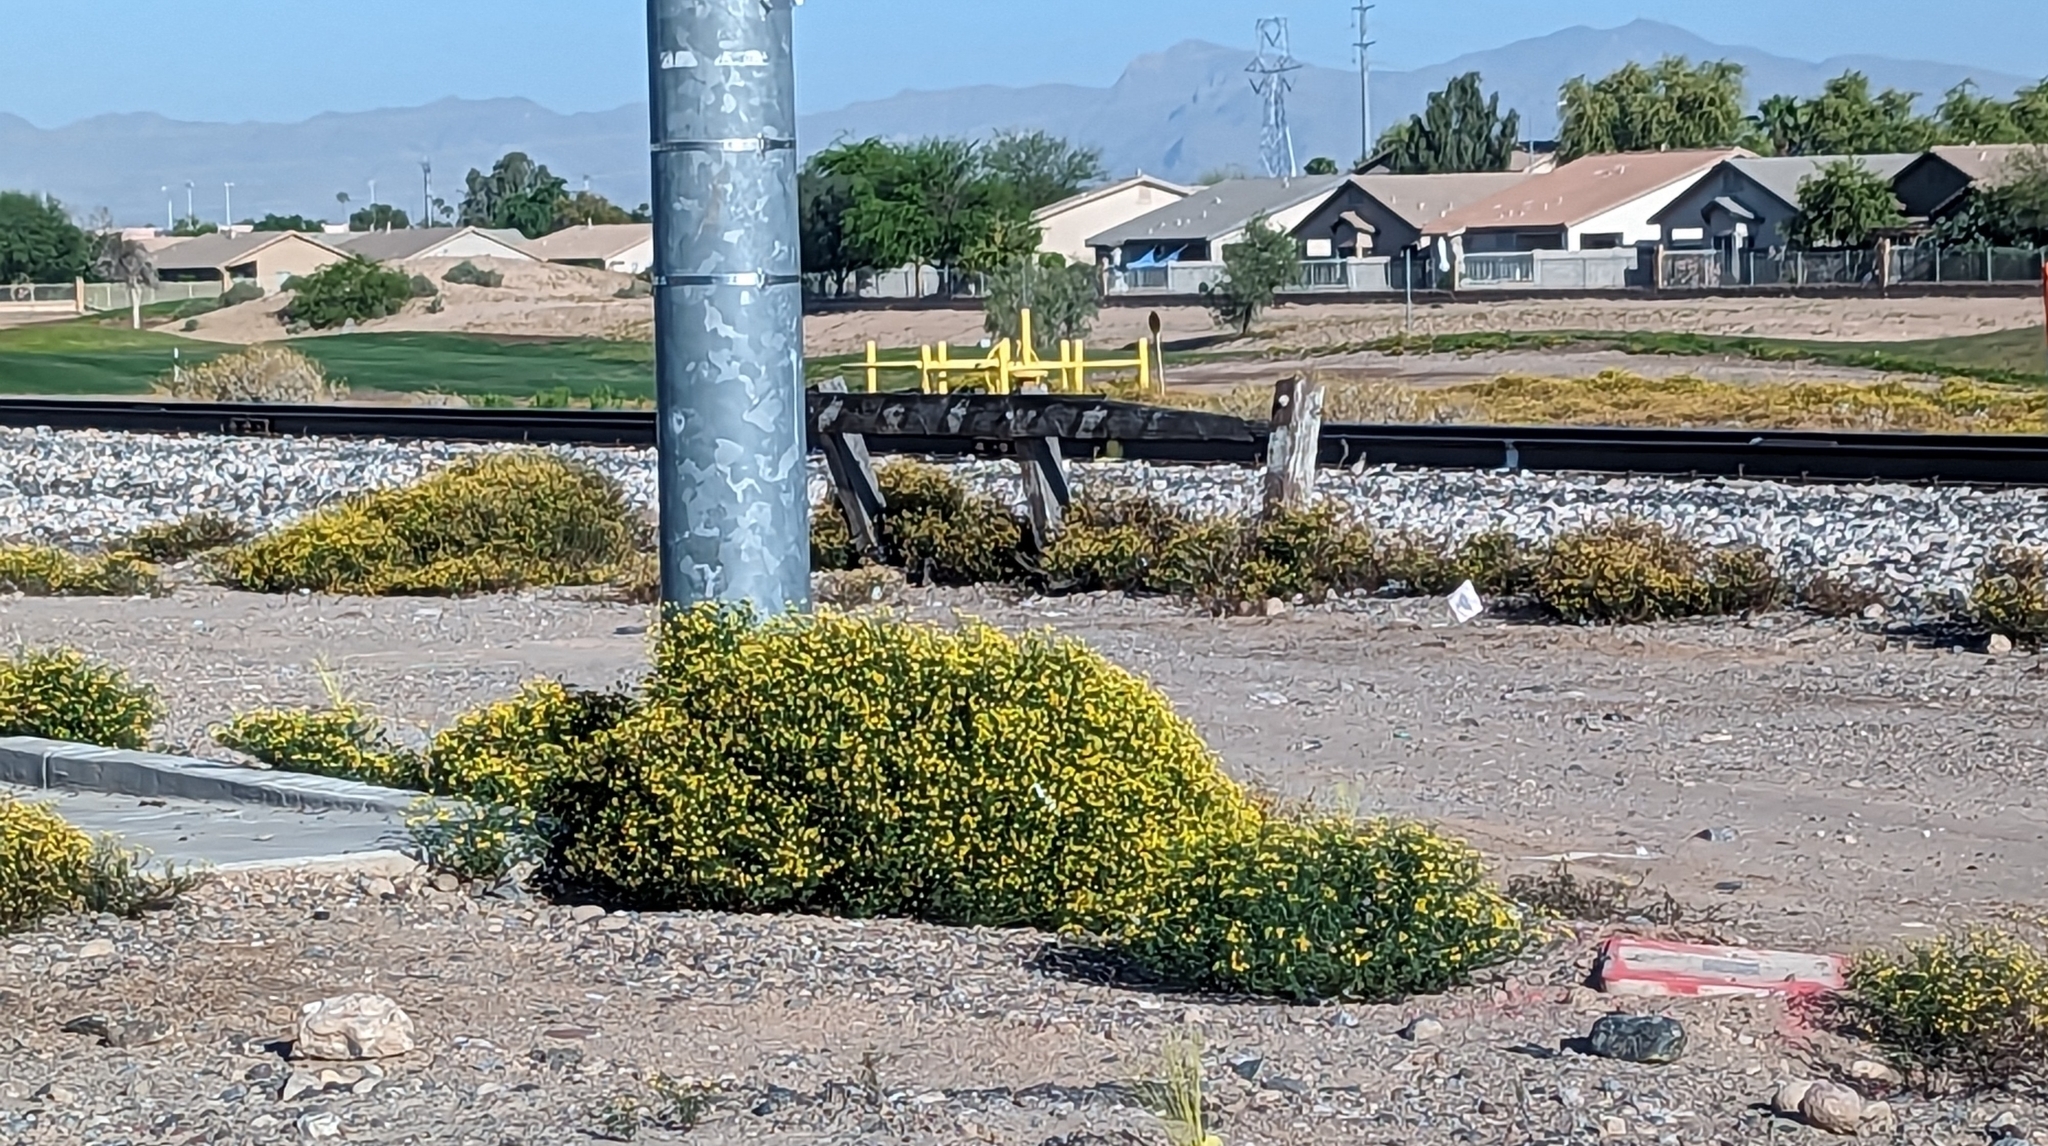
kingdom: Plantae
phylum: Tracheophyta
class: Magnoliopsida
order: Asterales
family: Asteraceae
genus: Oncosiphon
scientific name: Oncosiphon pilulifer
